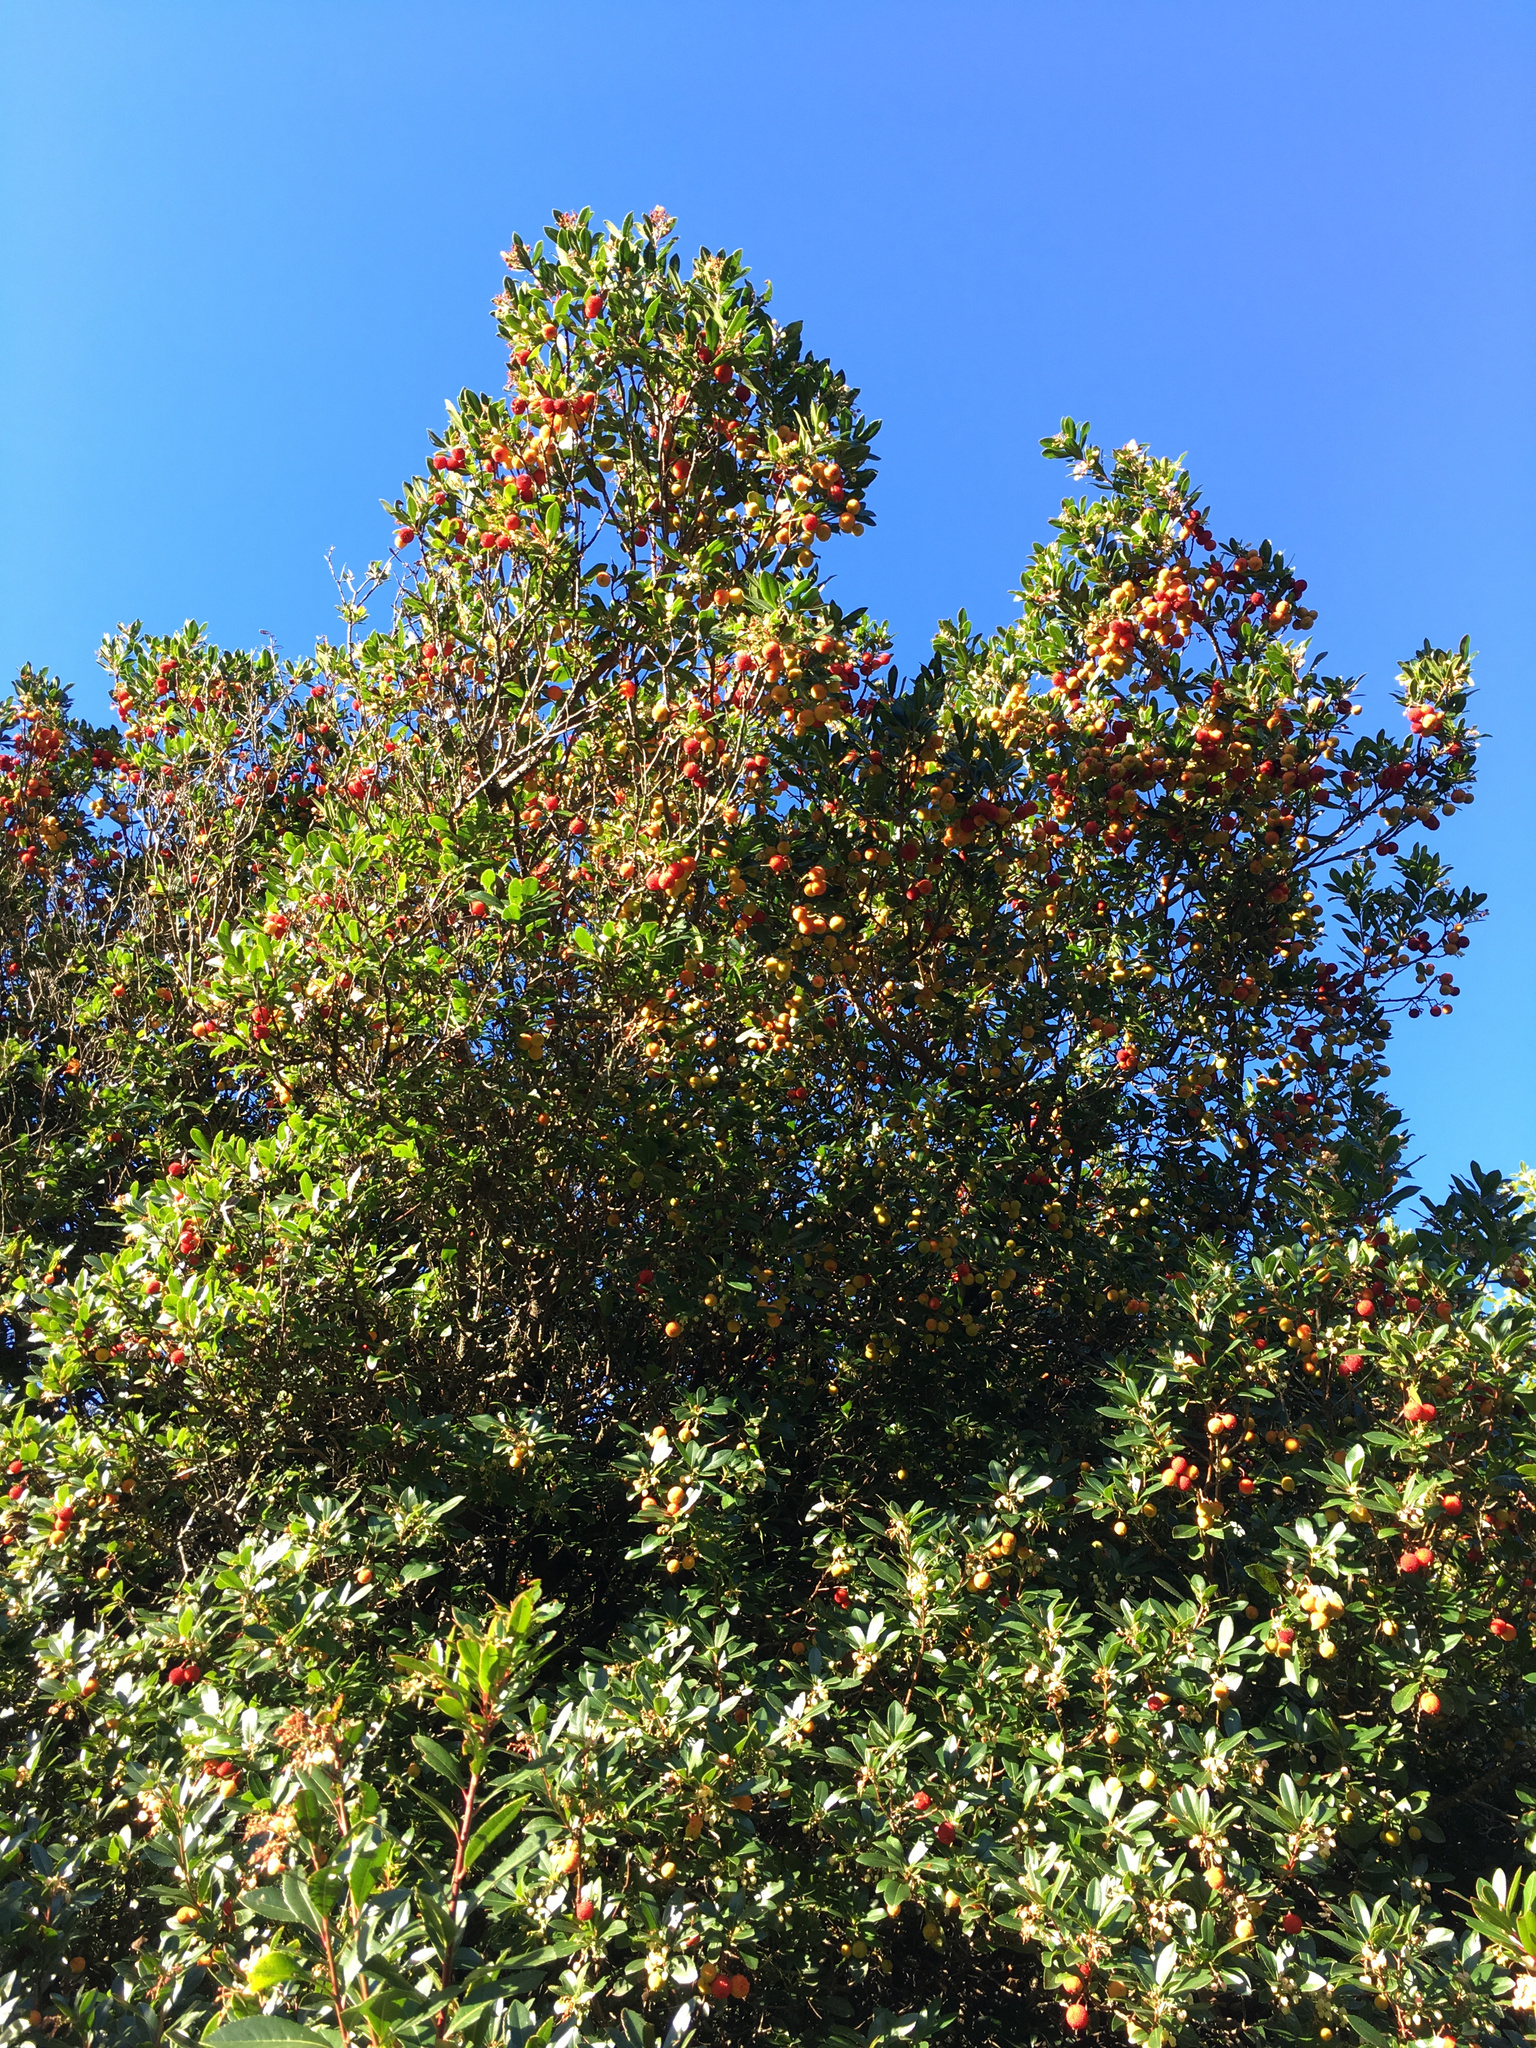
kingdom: Plantae
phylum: Tracheophyta
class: Magnoliopsida
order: Ericales
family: Ericaceae
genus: Arbutus
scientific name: Arbutus unedo
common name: Strawberry-tree
